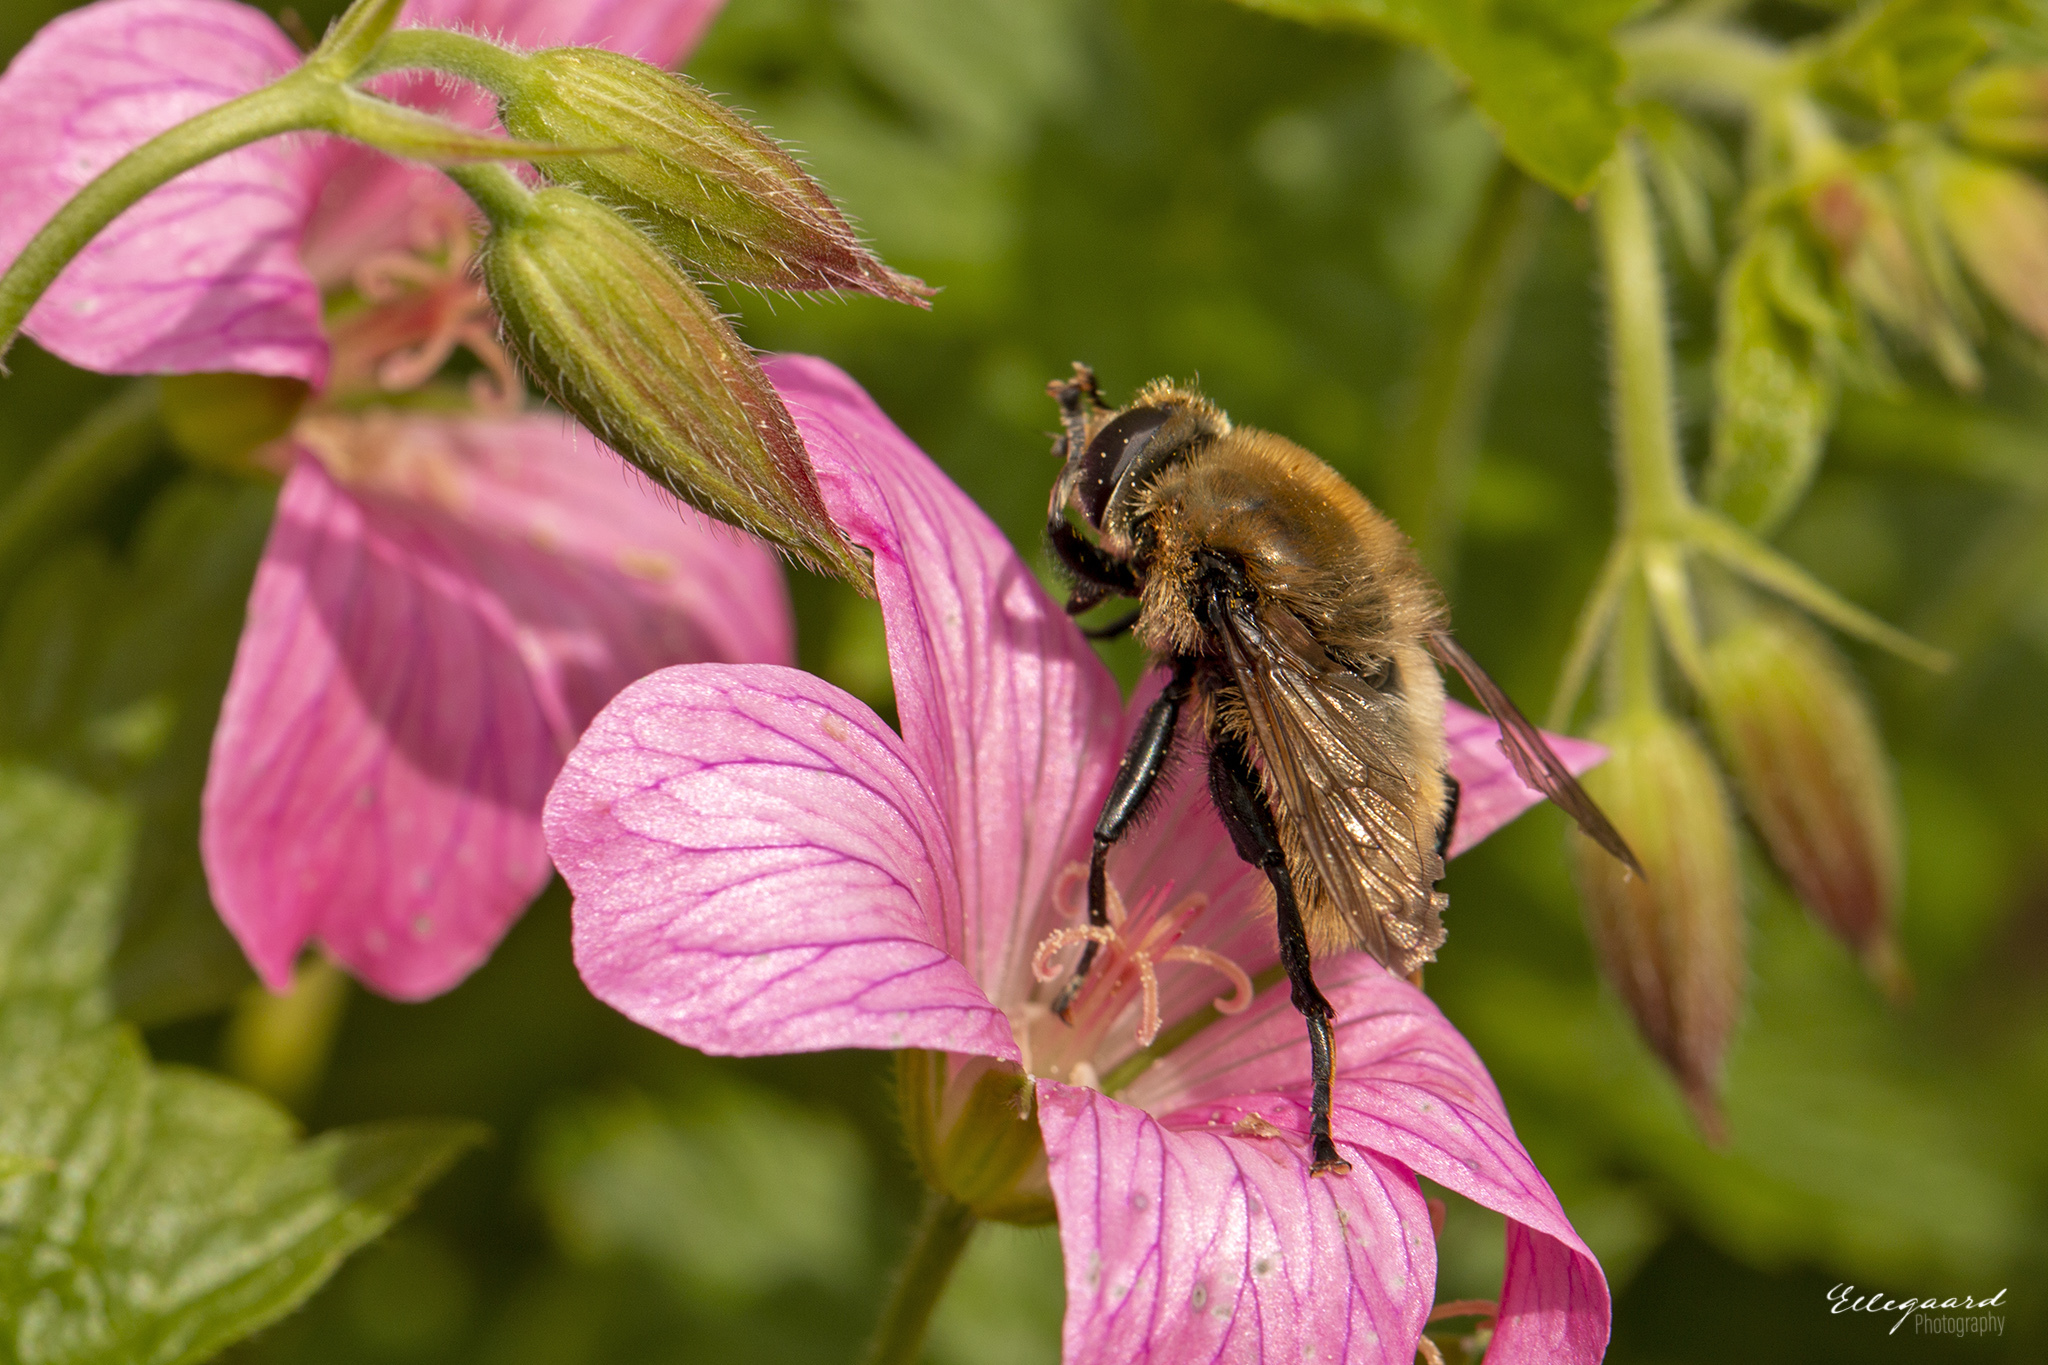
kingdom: Animalia
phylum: Arthropoda
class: Insecta
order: Diptera
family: Syrphidae
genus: Merodon
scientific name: Merodon equestris
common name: Greater bulb-fly
